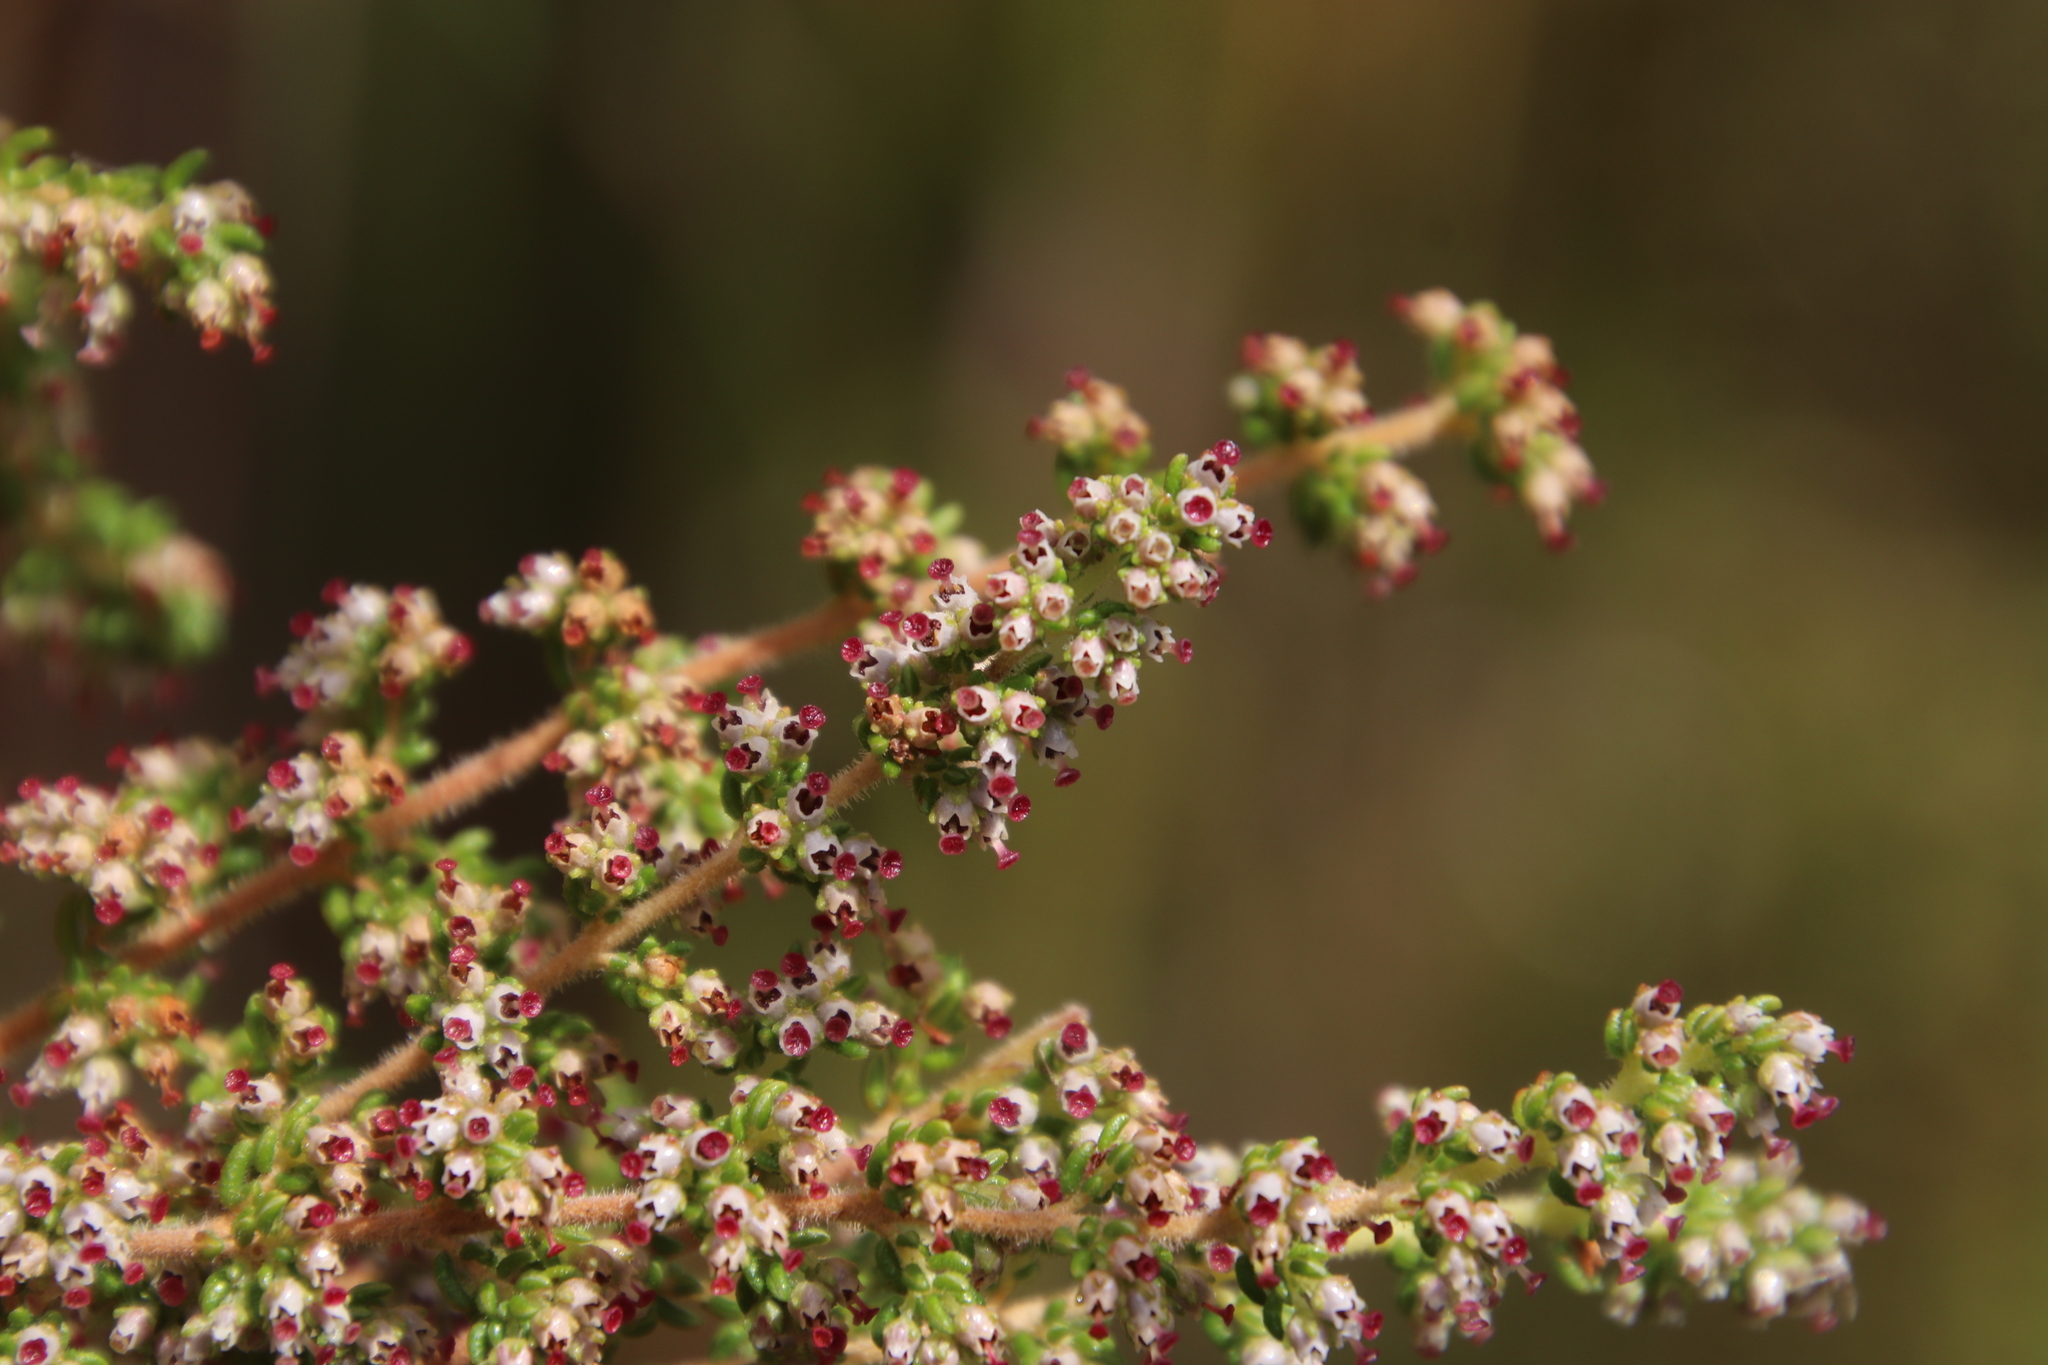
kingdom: Plantae
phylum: Tracheophyta
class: Magnoliopsida
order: Ericales
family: Ericaceae
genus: Erica
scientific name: Erica hispidula
